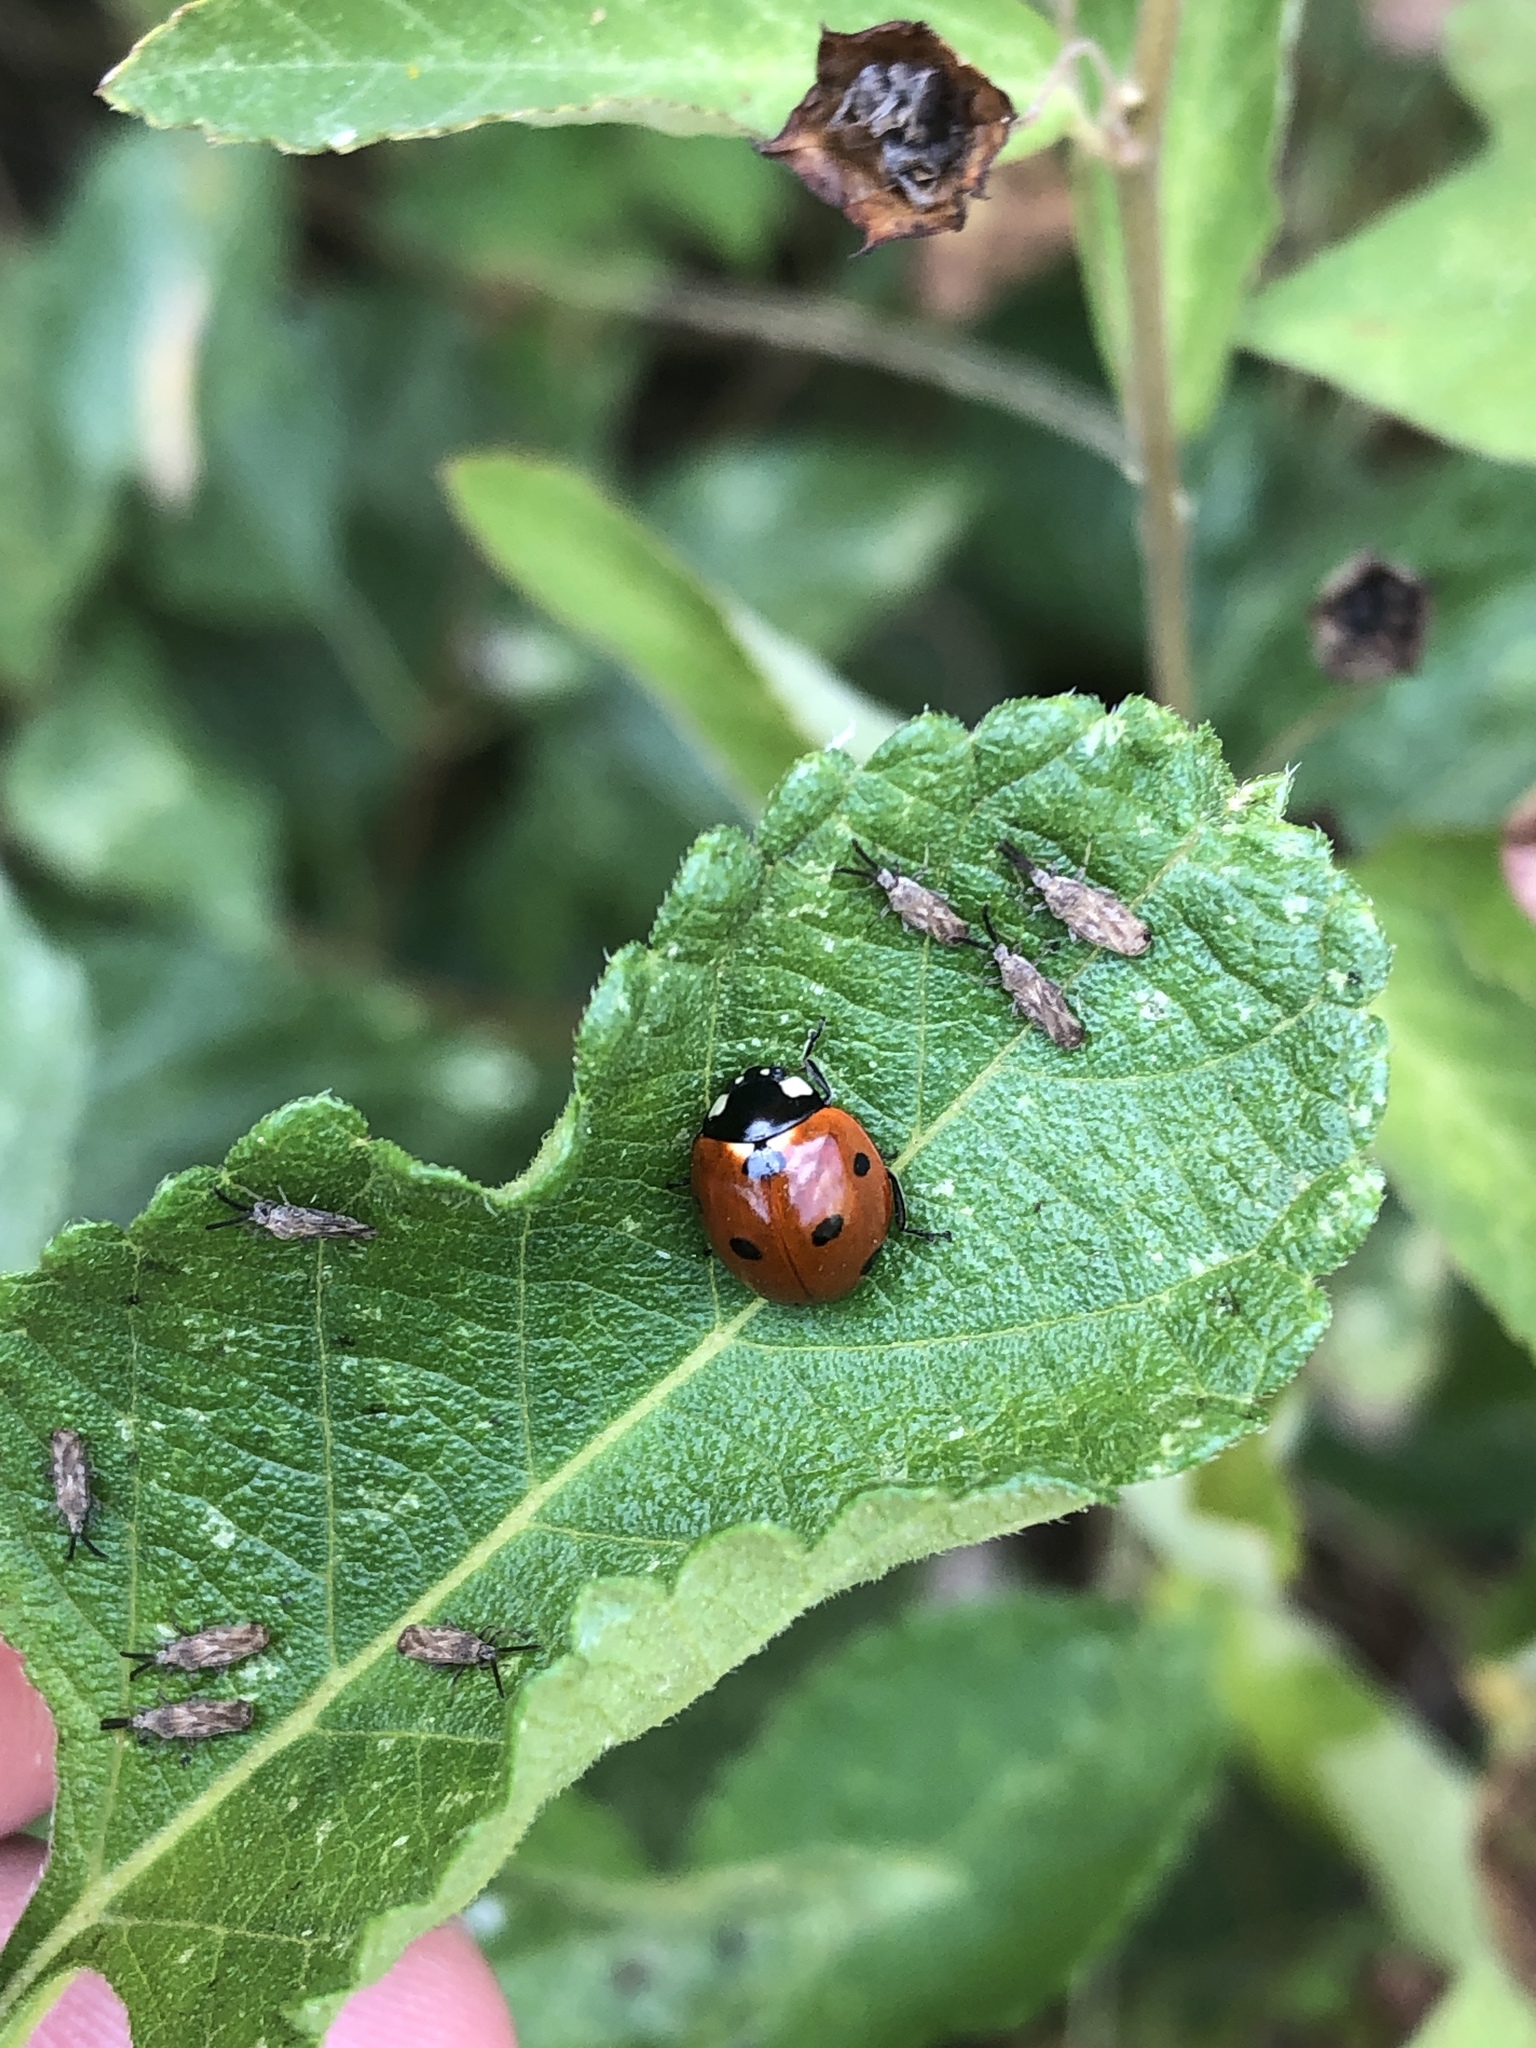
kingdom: Animalia
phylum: Arthropoda
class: Insecta
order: Coleoptera
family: Coccinellidae
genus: Coccinella
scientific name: Coccinella septempunctata
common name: Sevenspotted lady beetle
